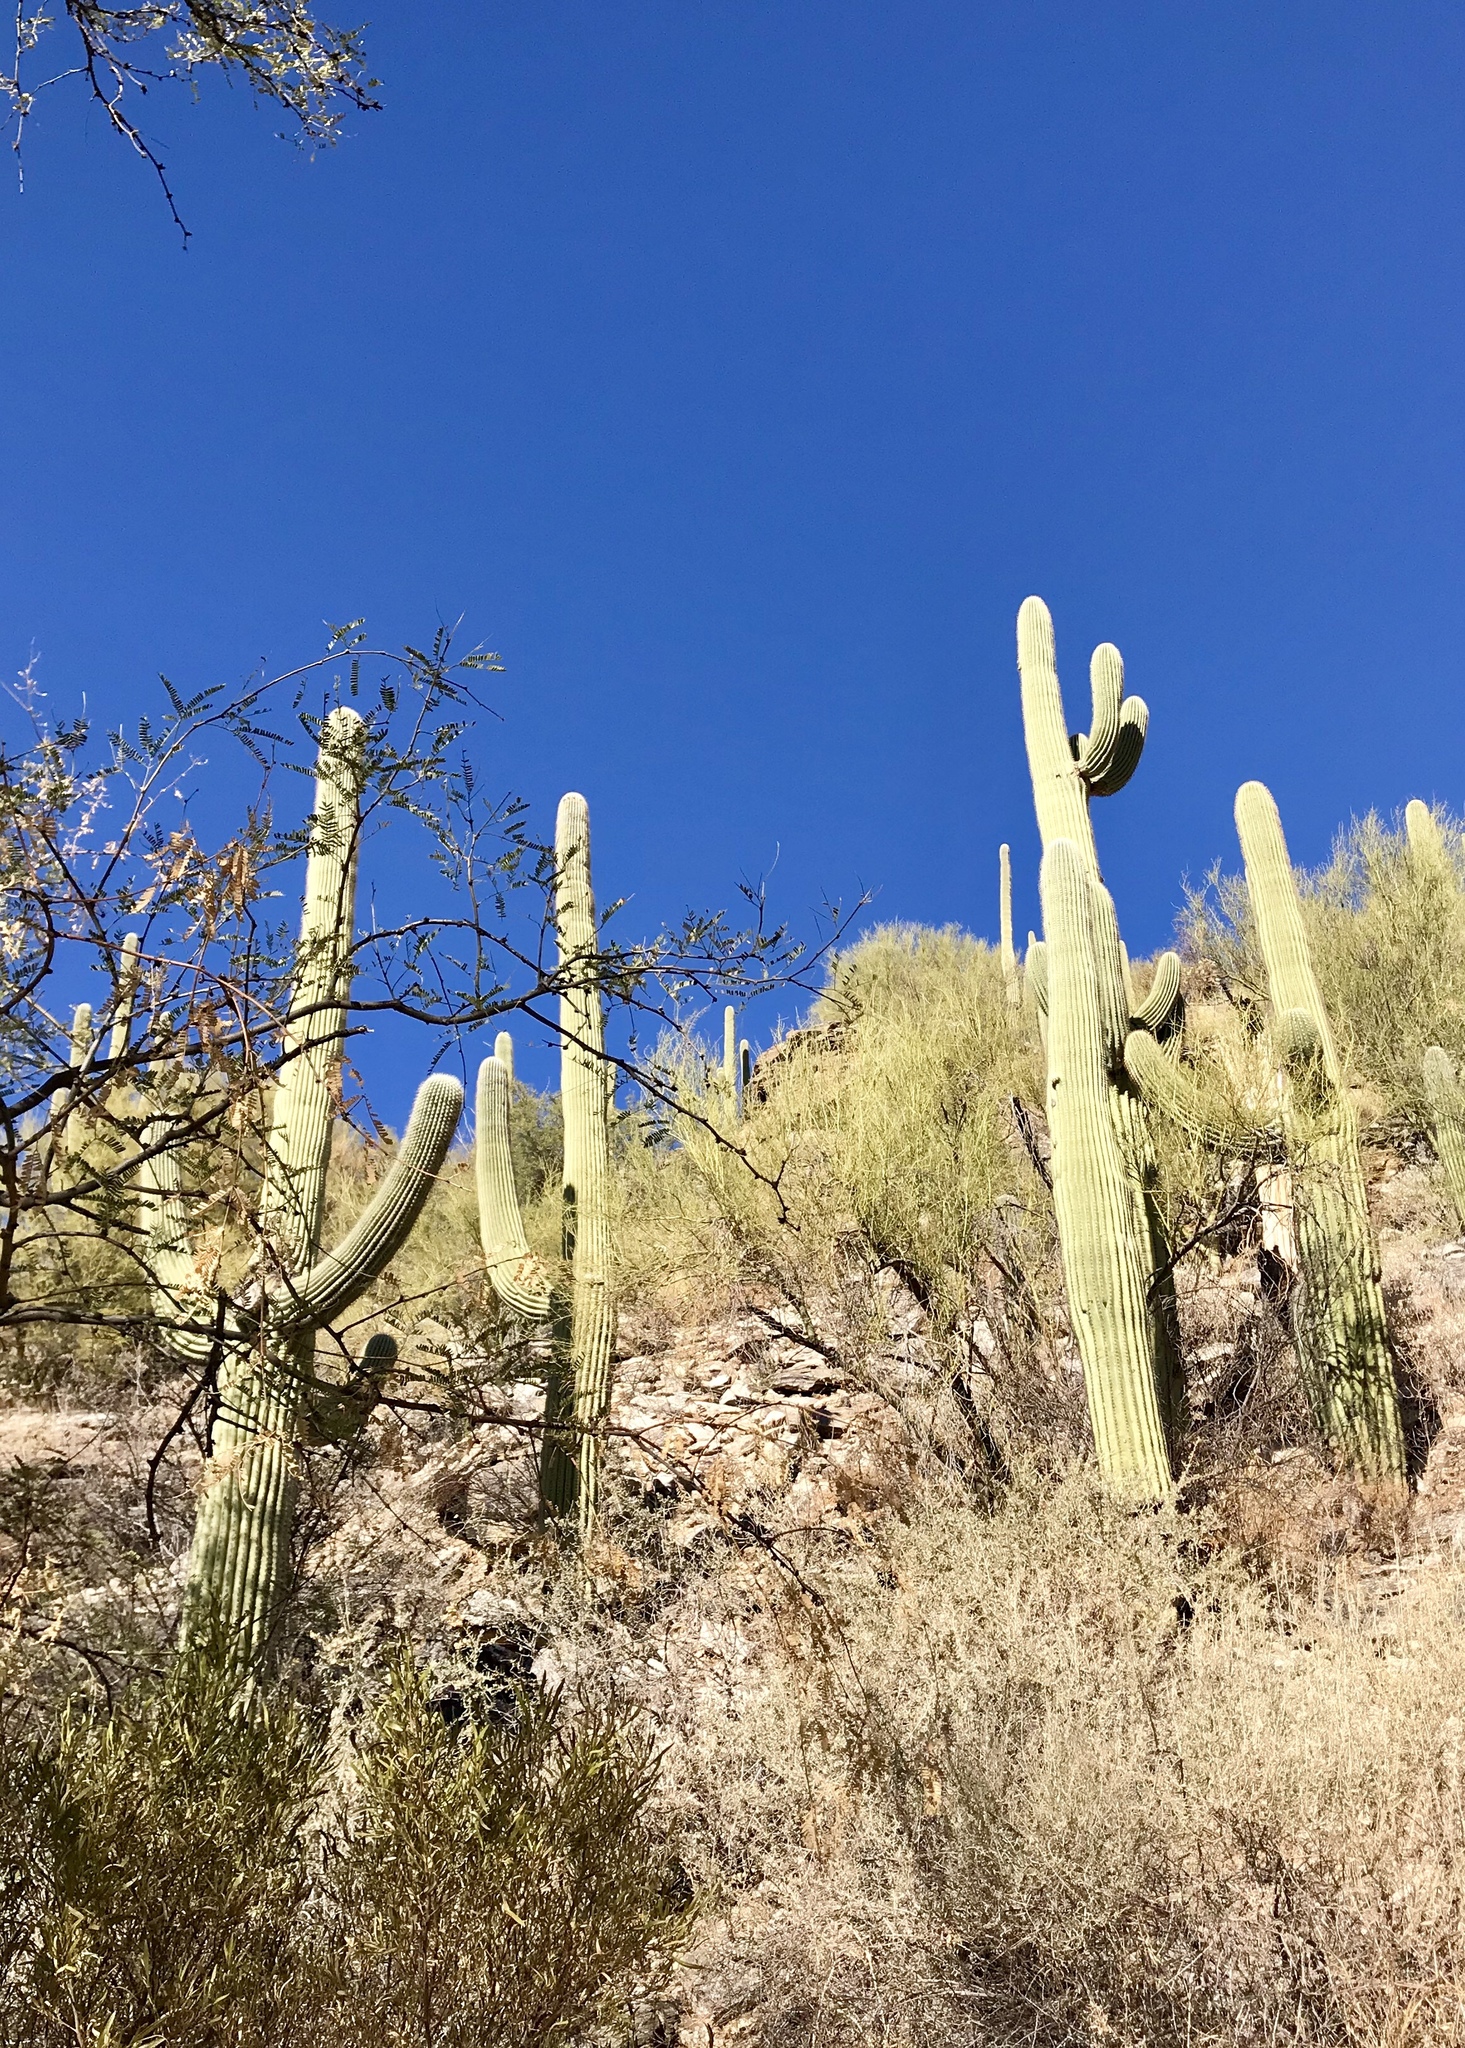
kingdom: Plantae
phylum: Tracheophyta
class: Magnoliopsida
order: Caryophyllales
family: Cactaceae
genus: Carnegiea
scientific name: Carnegiea gigantea
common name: Saguaro
